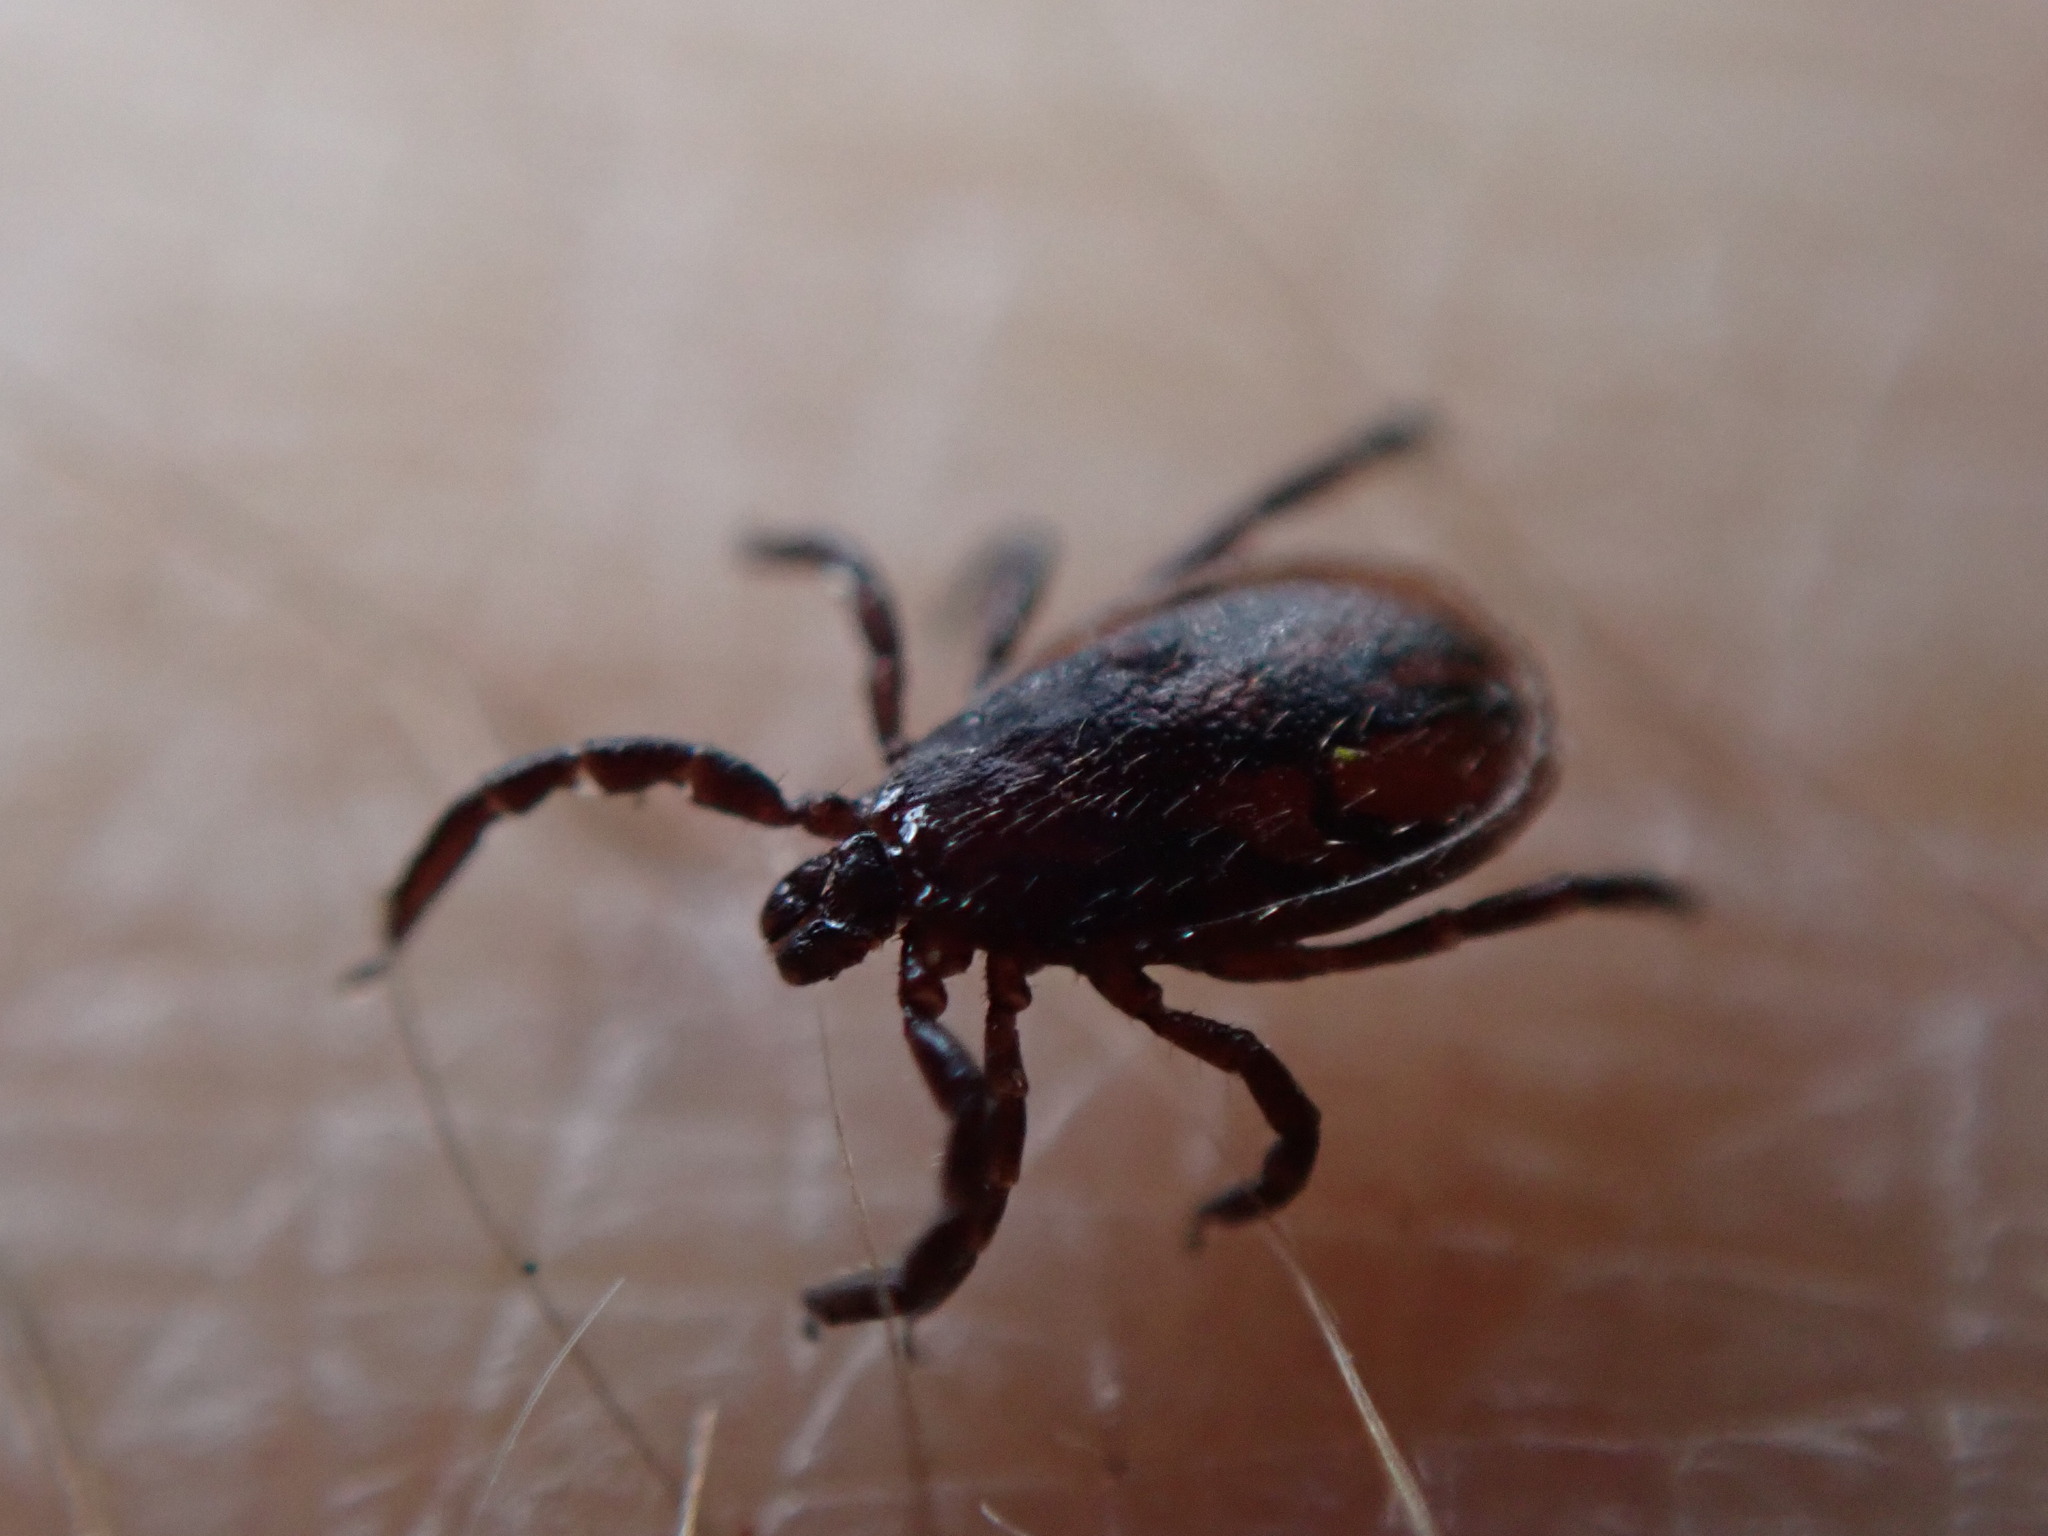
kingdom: Animalia
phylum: Arthropoda
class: Arachnida
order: Ixodida
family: Ixodidae
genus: Ixodes
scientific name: Ixodes pacificus
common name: California black-legged tick
